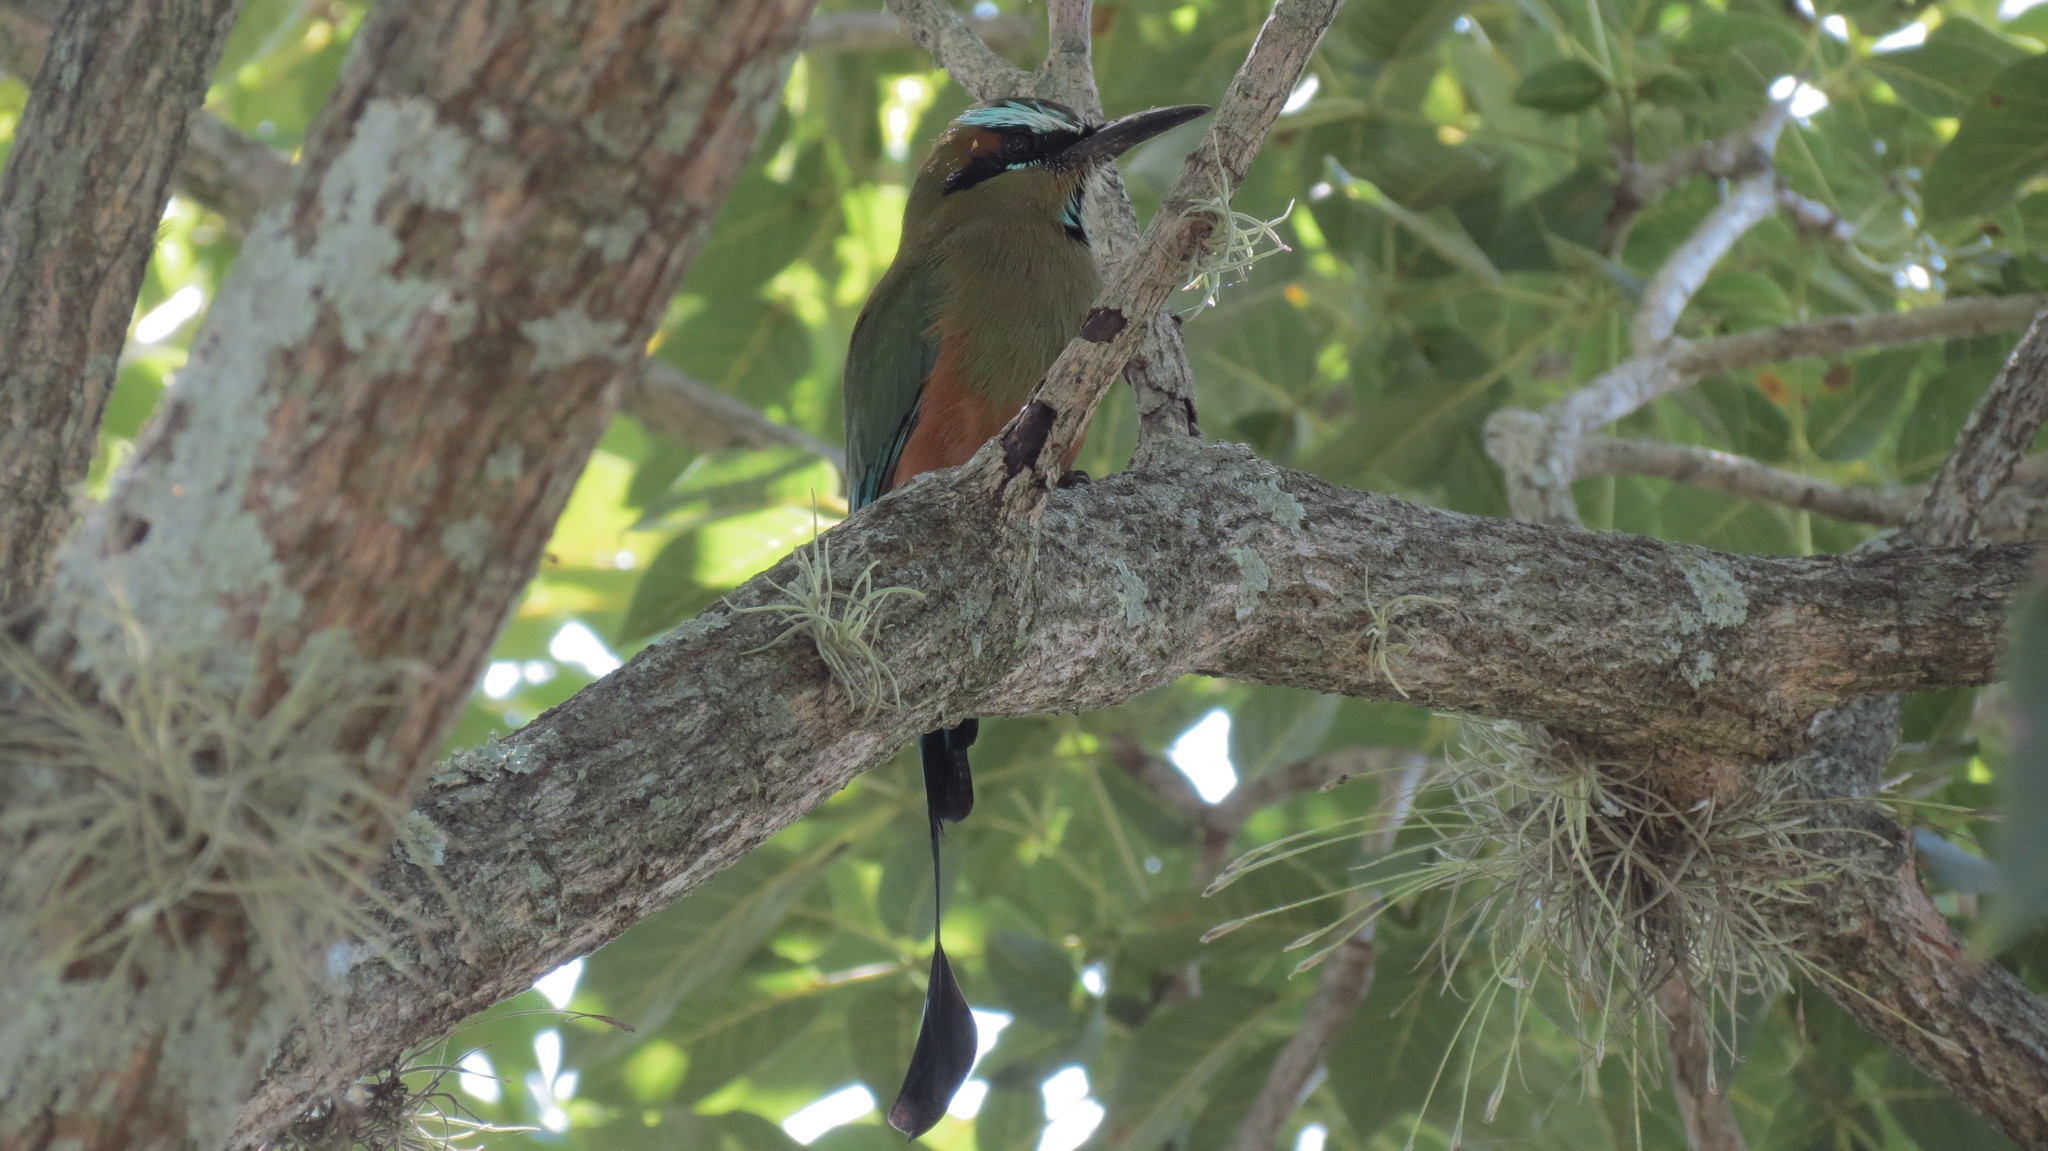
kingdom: Animalia
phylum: Chordata
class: Aves
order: Coraciiformes
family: Momotidae
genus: Eumomota
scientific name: Eumomota superciliosa
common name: Turquoise-browed motmot
